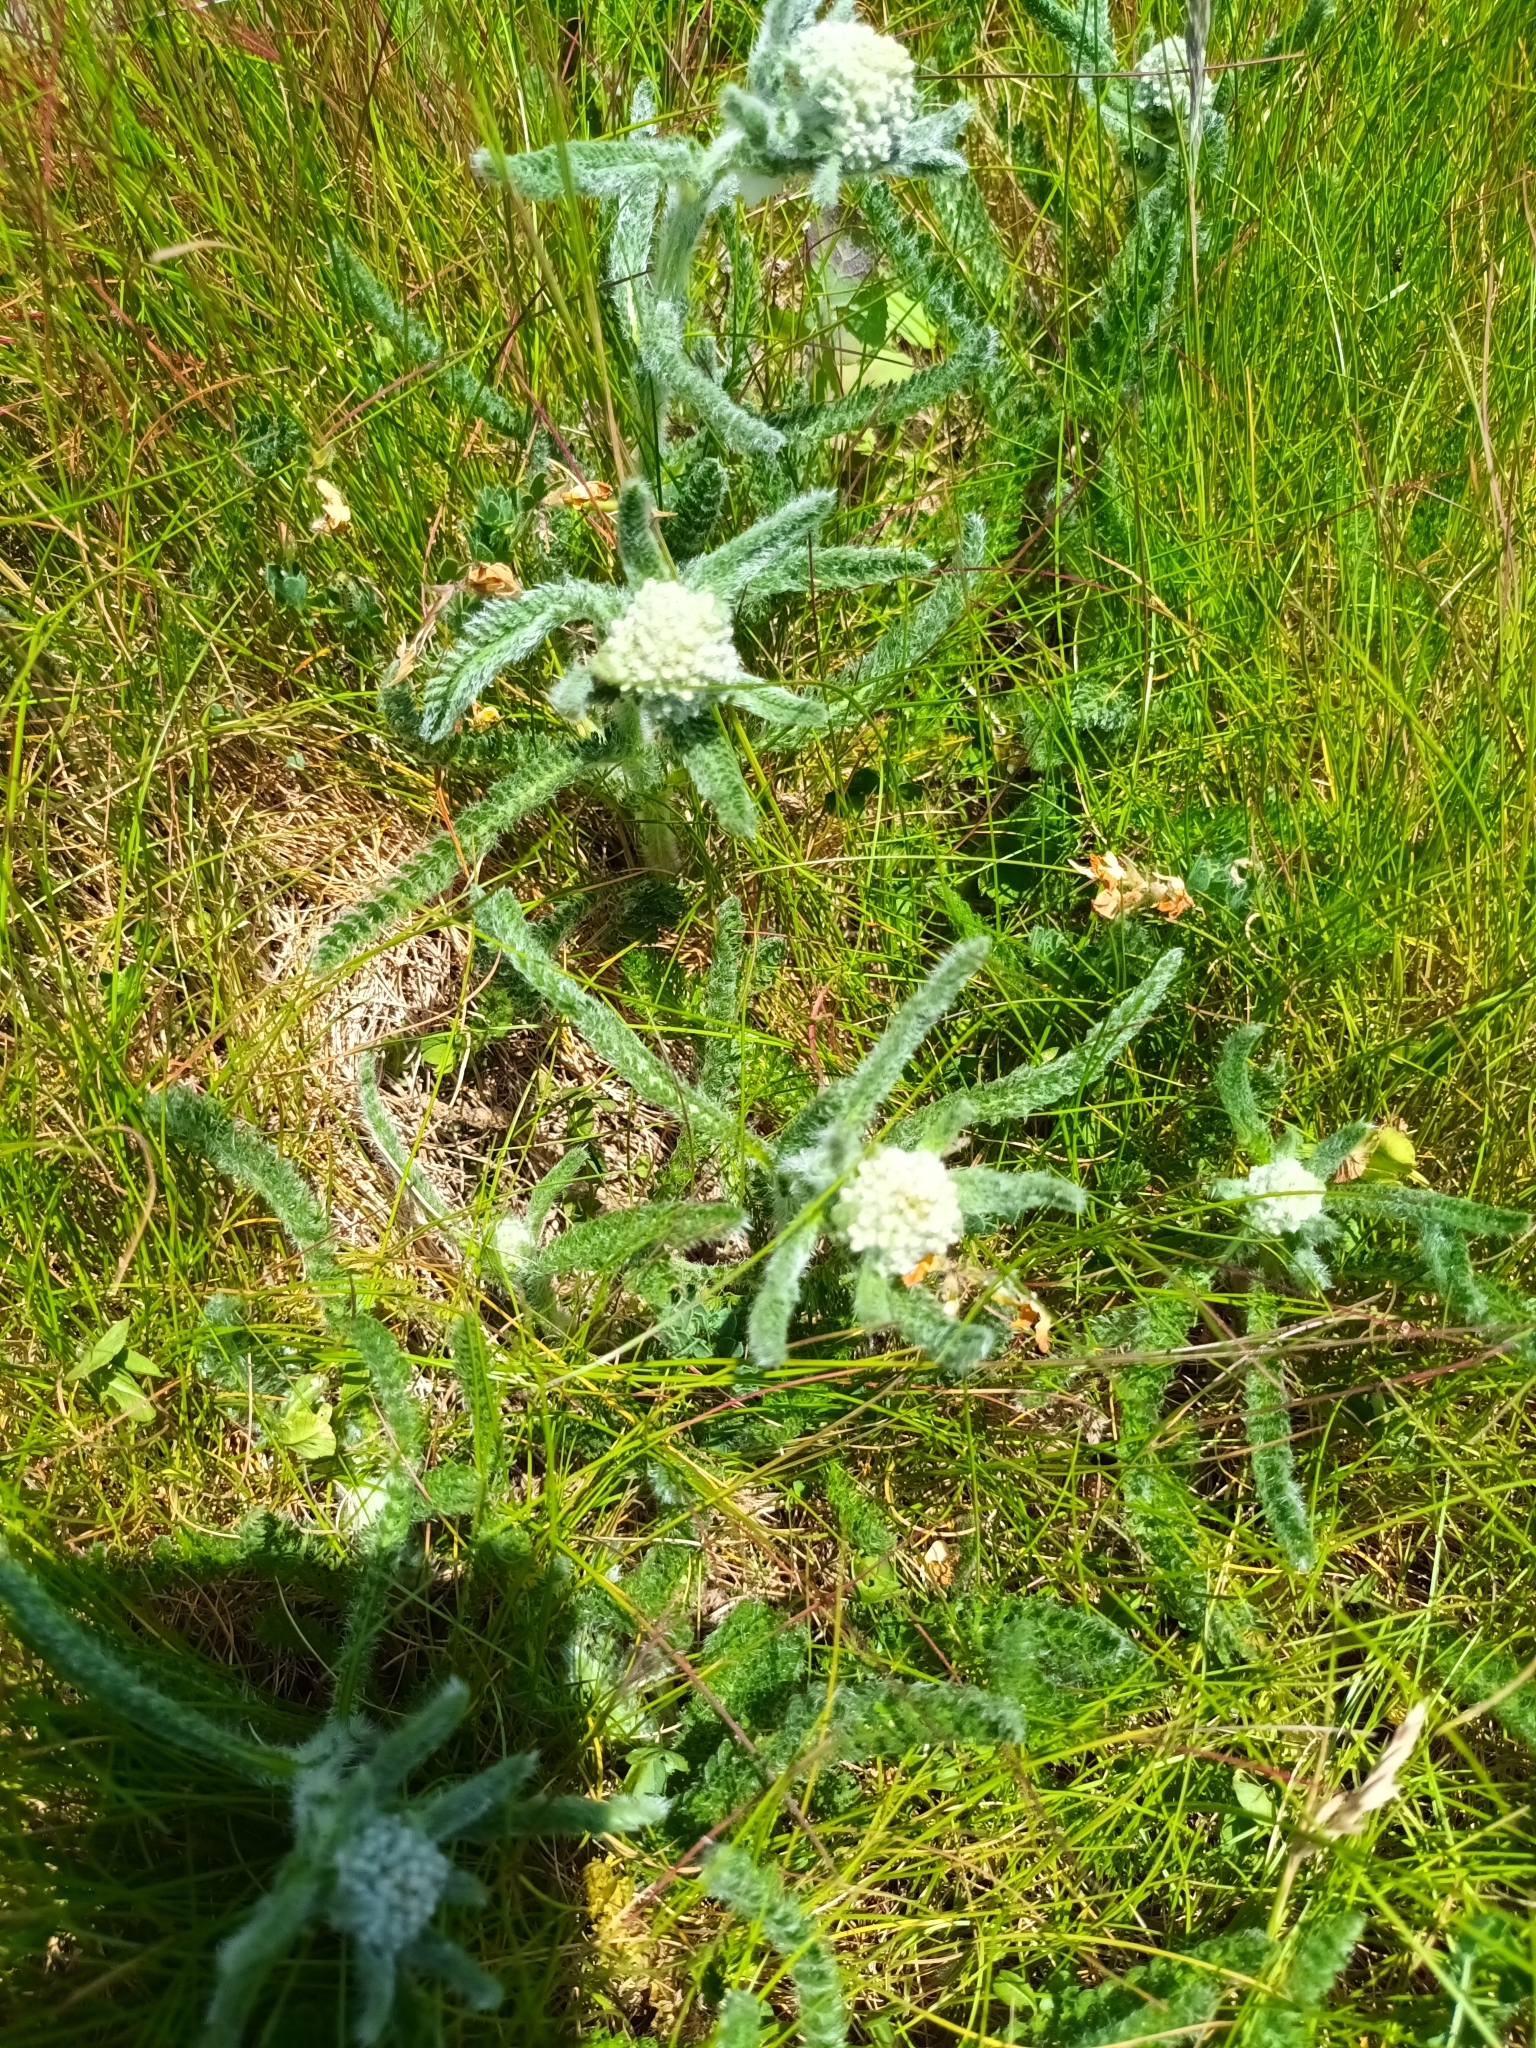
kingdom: Plantae
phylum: Tracheophyta
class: Magnoliopsida
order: Asterales
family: Asteraceae
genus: Achillea
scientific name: Achillea millefolium
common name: Yarrow
